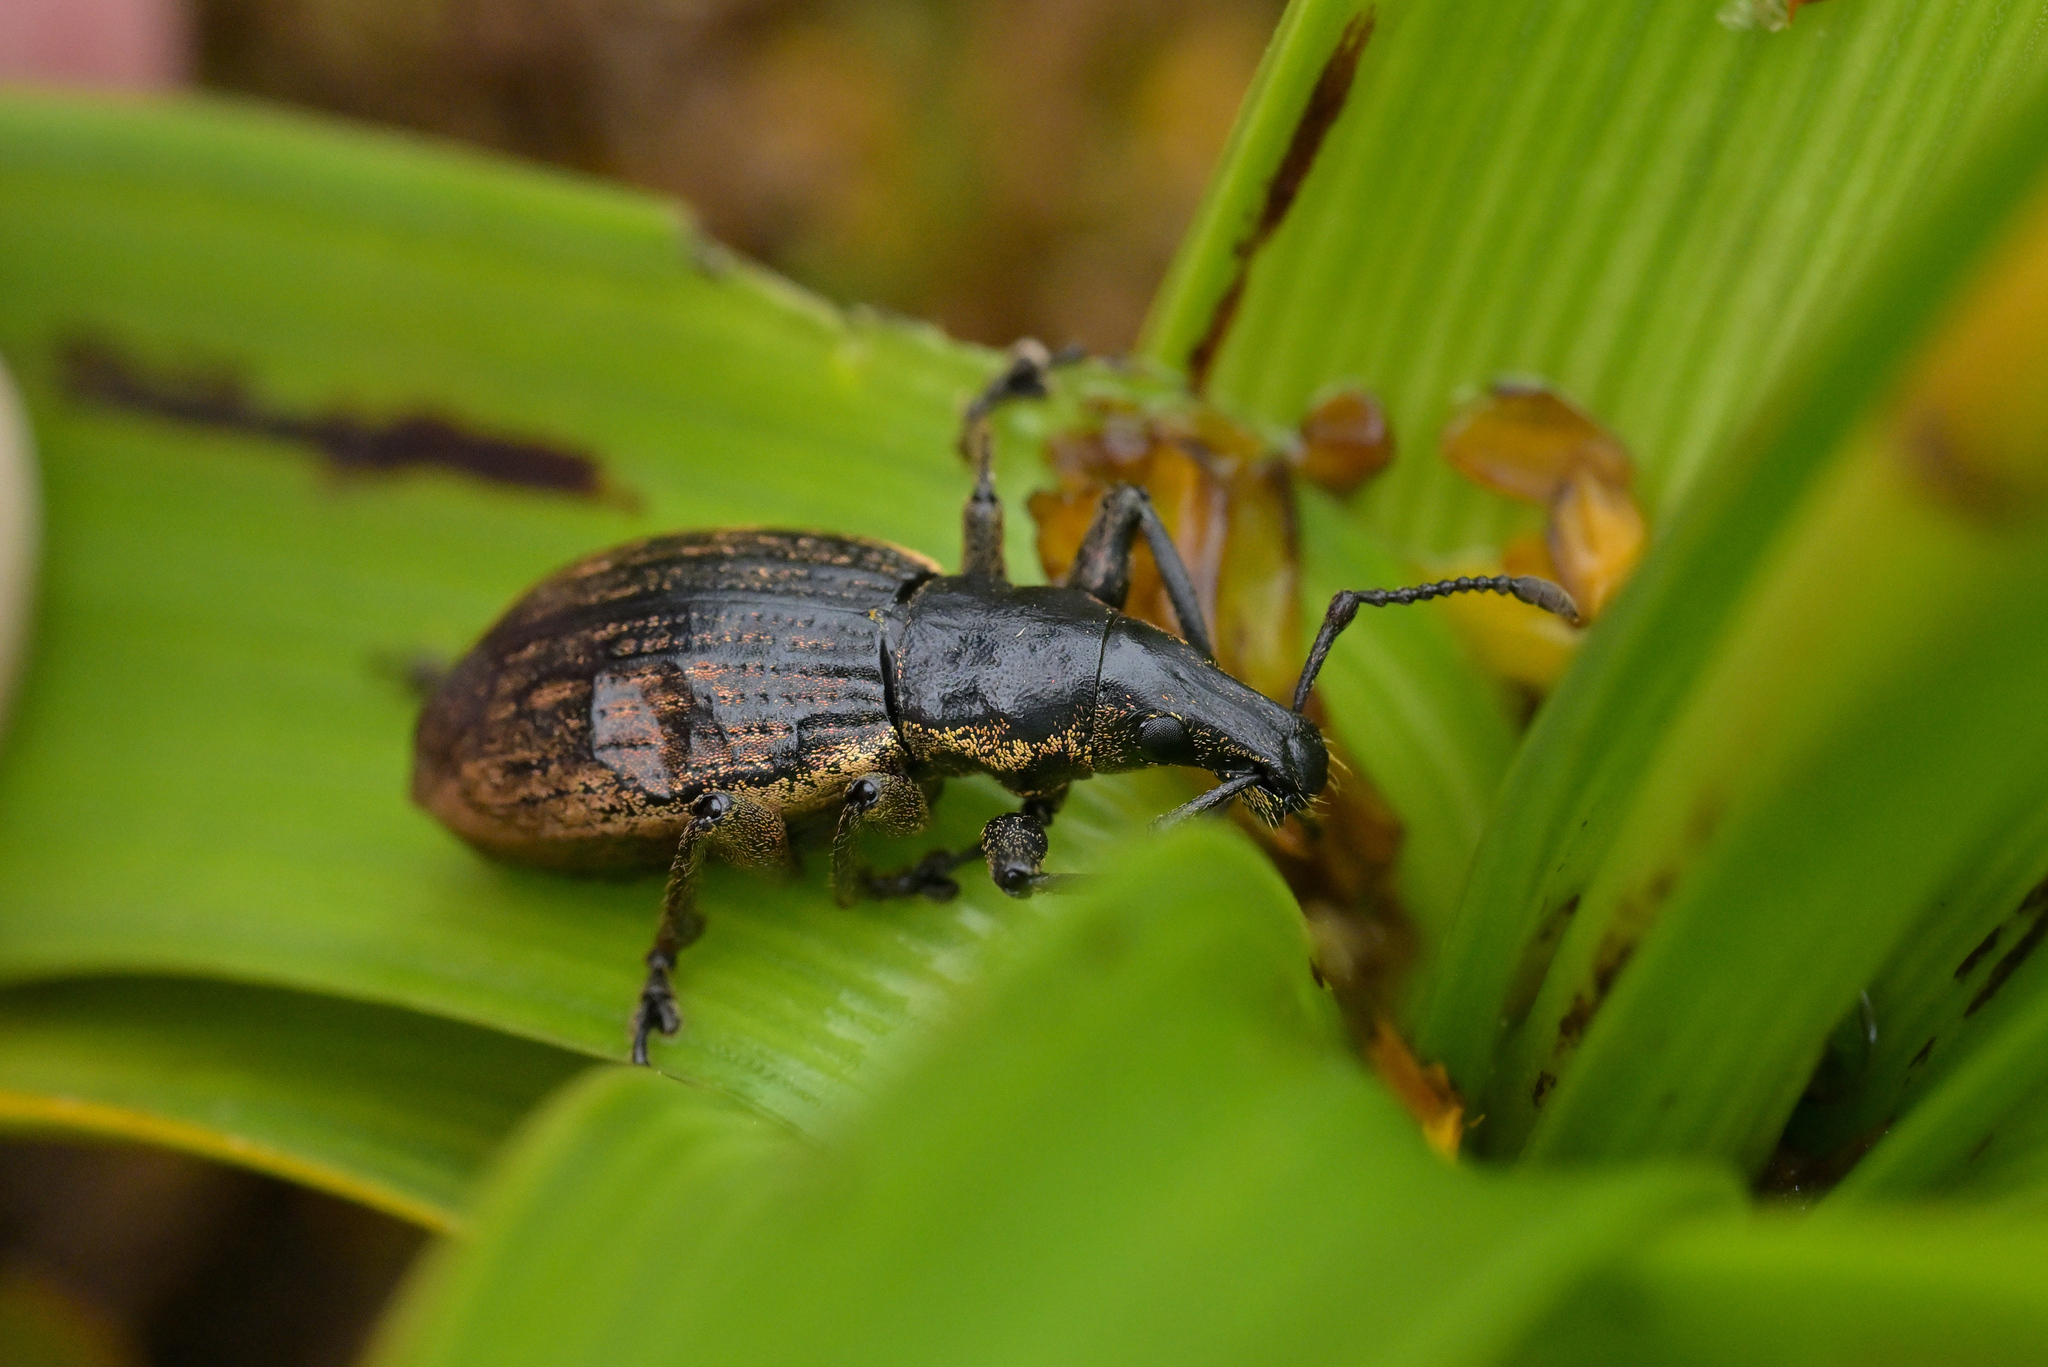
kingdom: Animalia
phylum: Arthropoda
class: Insecta
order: Coleoptera
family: Curculionidae
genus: Oclandius
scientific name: Oclandius cinereus
